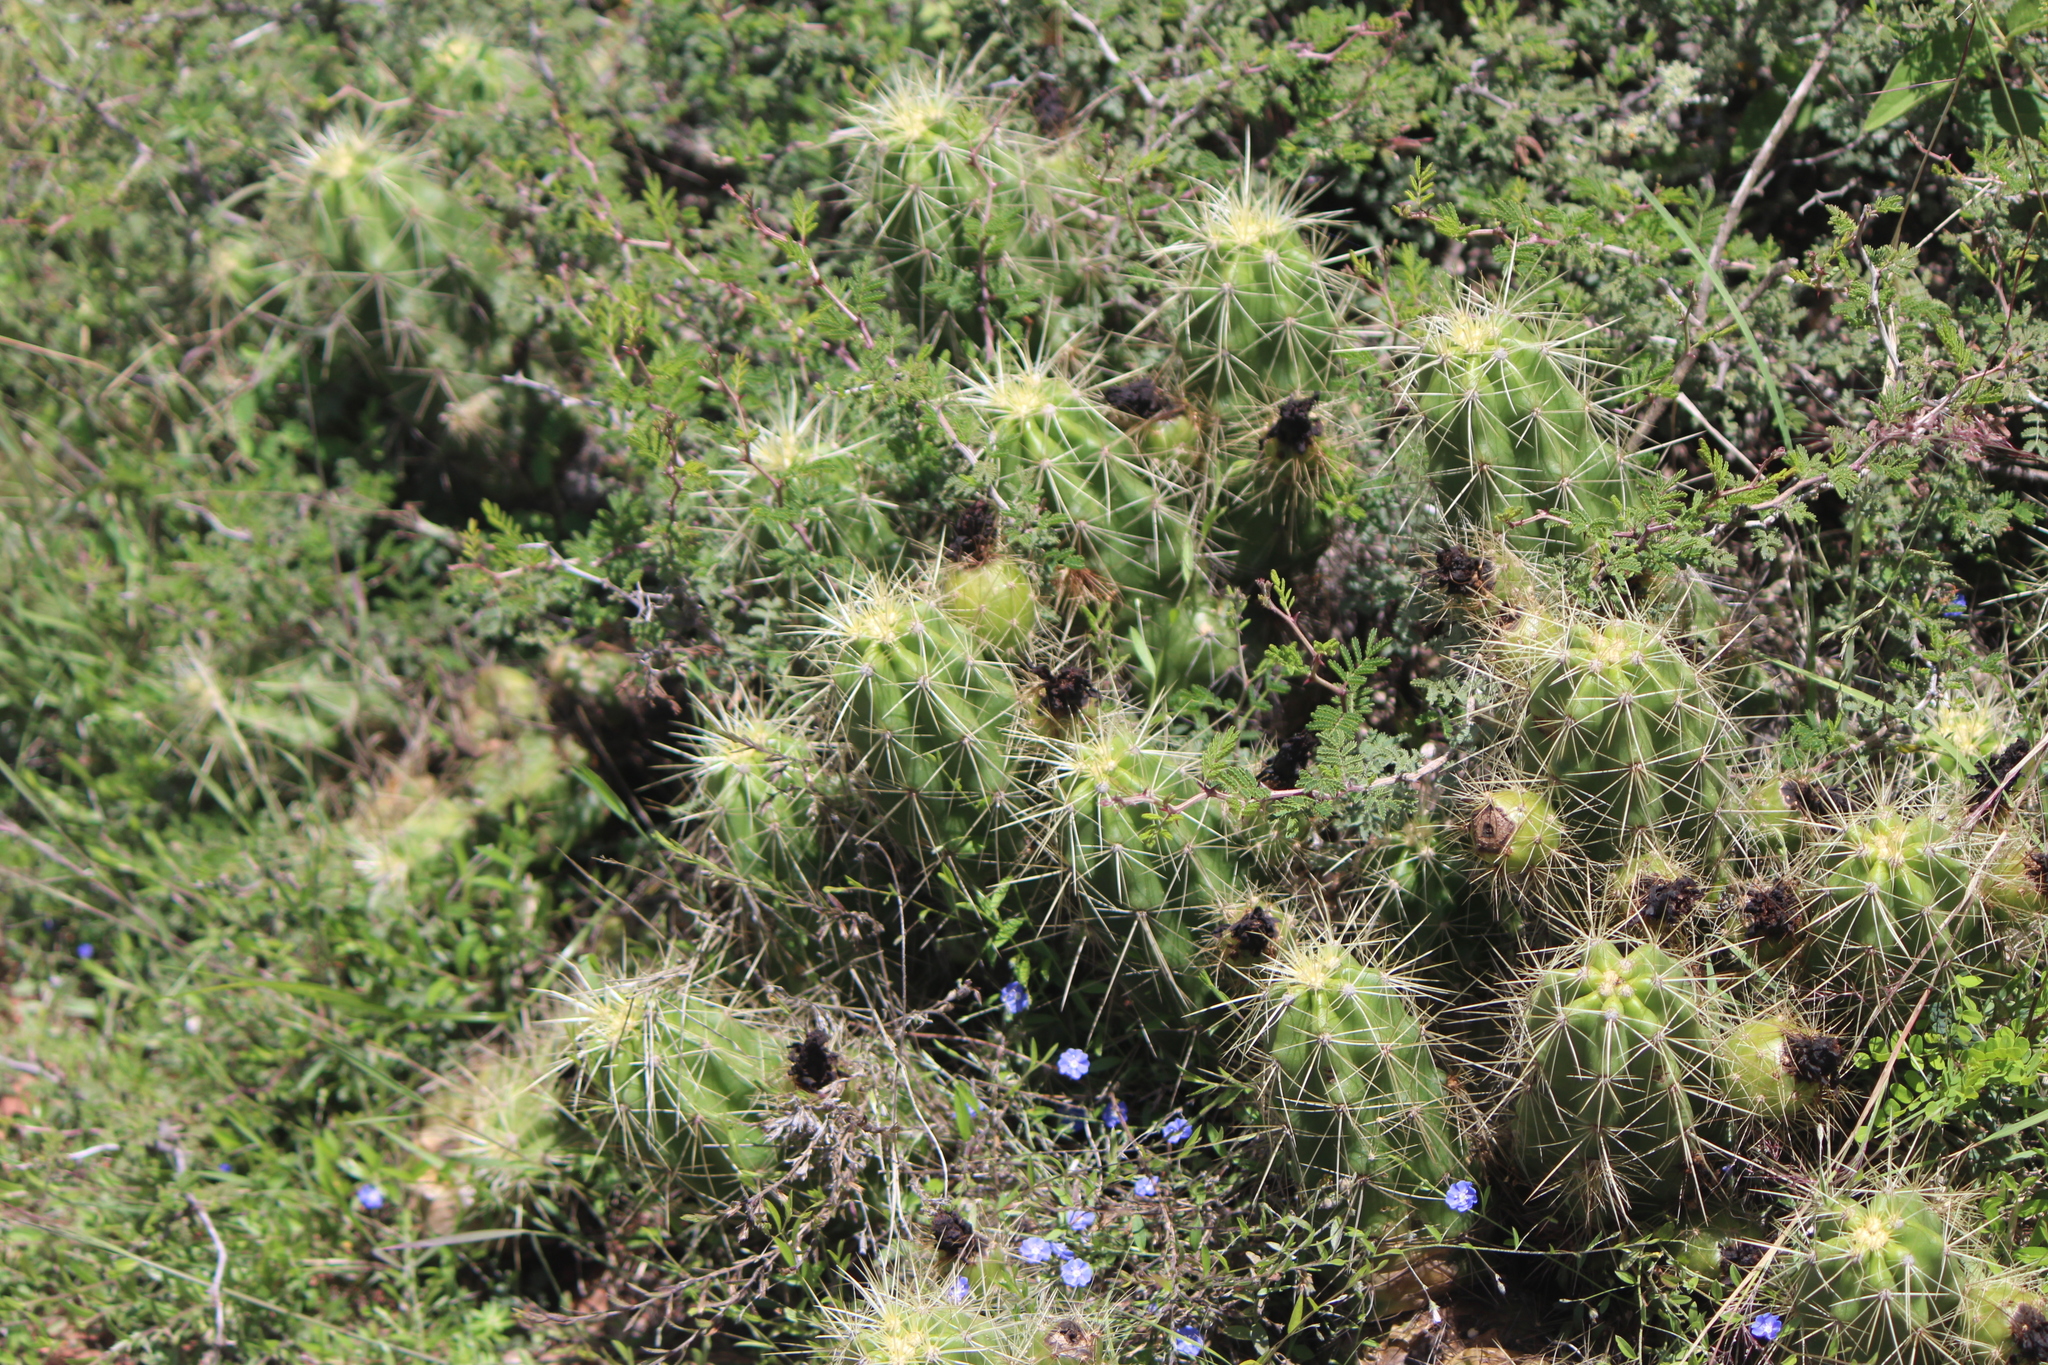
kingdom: Plantae
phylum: Tracheophyta
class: Magnoliopsida
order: Caryophyllales
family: Cactaceae
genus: Echinocereus
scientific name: Echinocereus cinerascens
